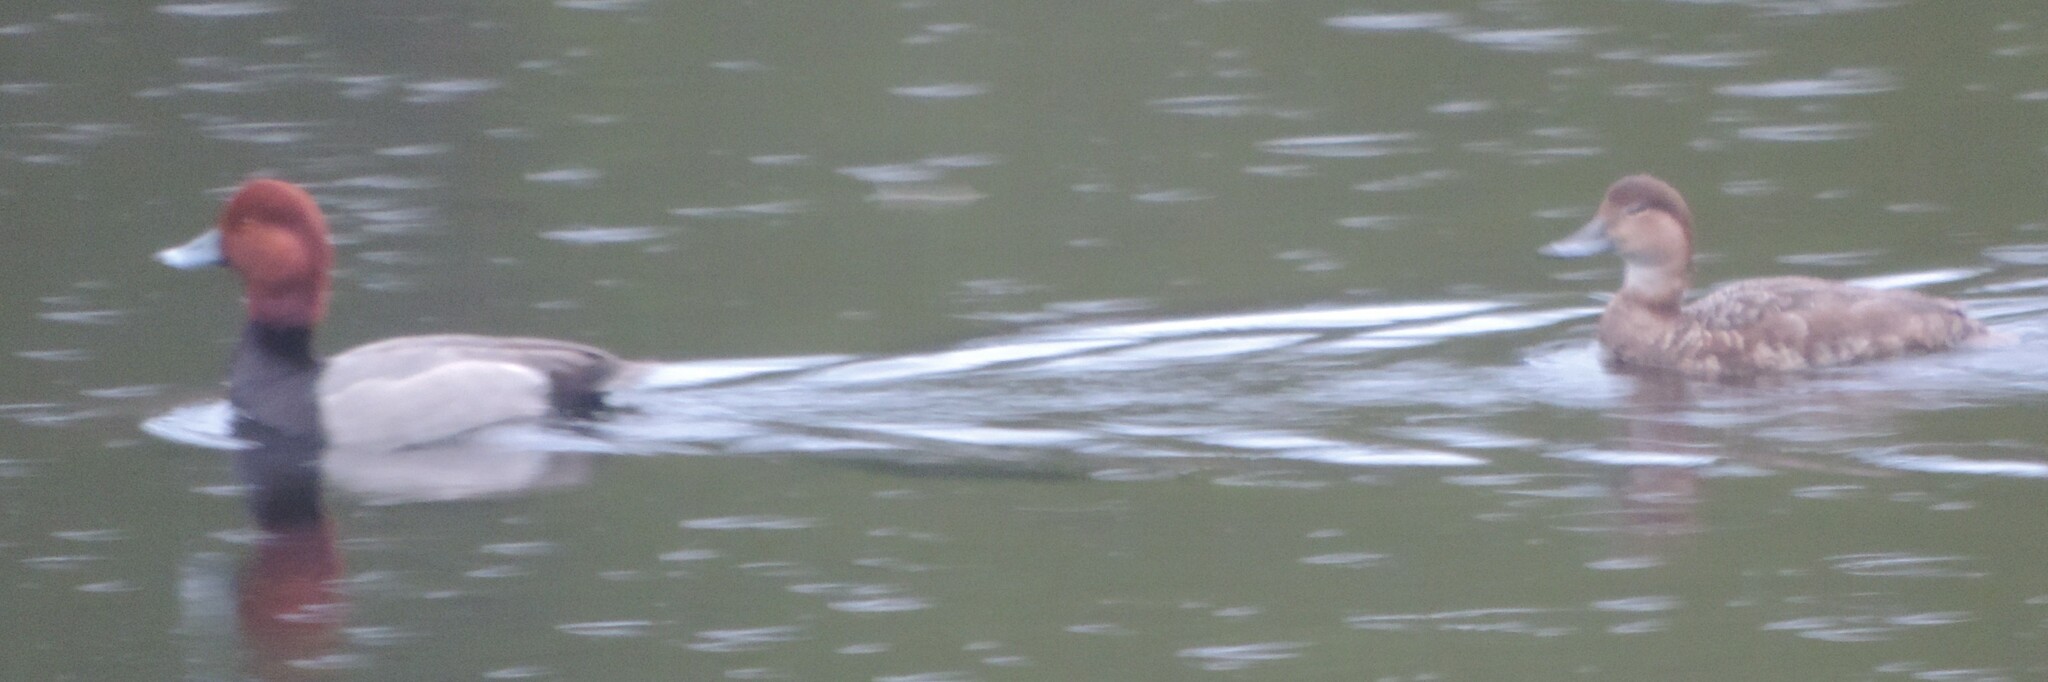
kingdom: Animalia
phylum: Chordata
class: Aves
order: Anseriformes
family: Anatidae
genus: Aythya
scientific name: Aythya americana
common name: Redhead
